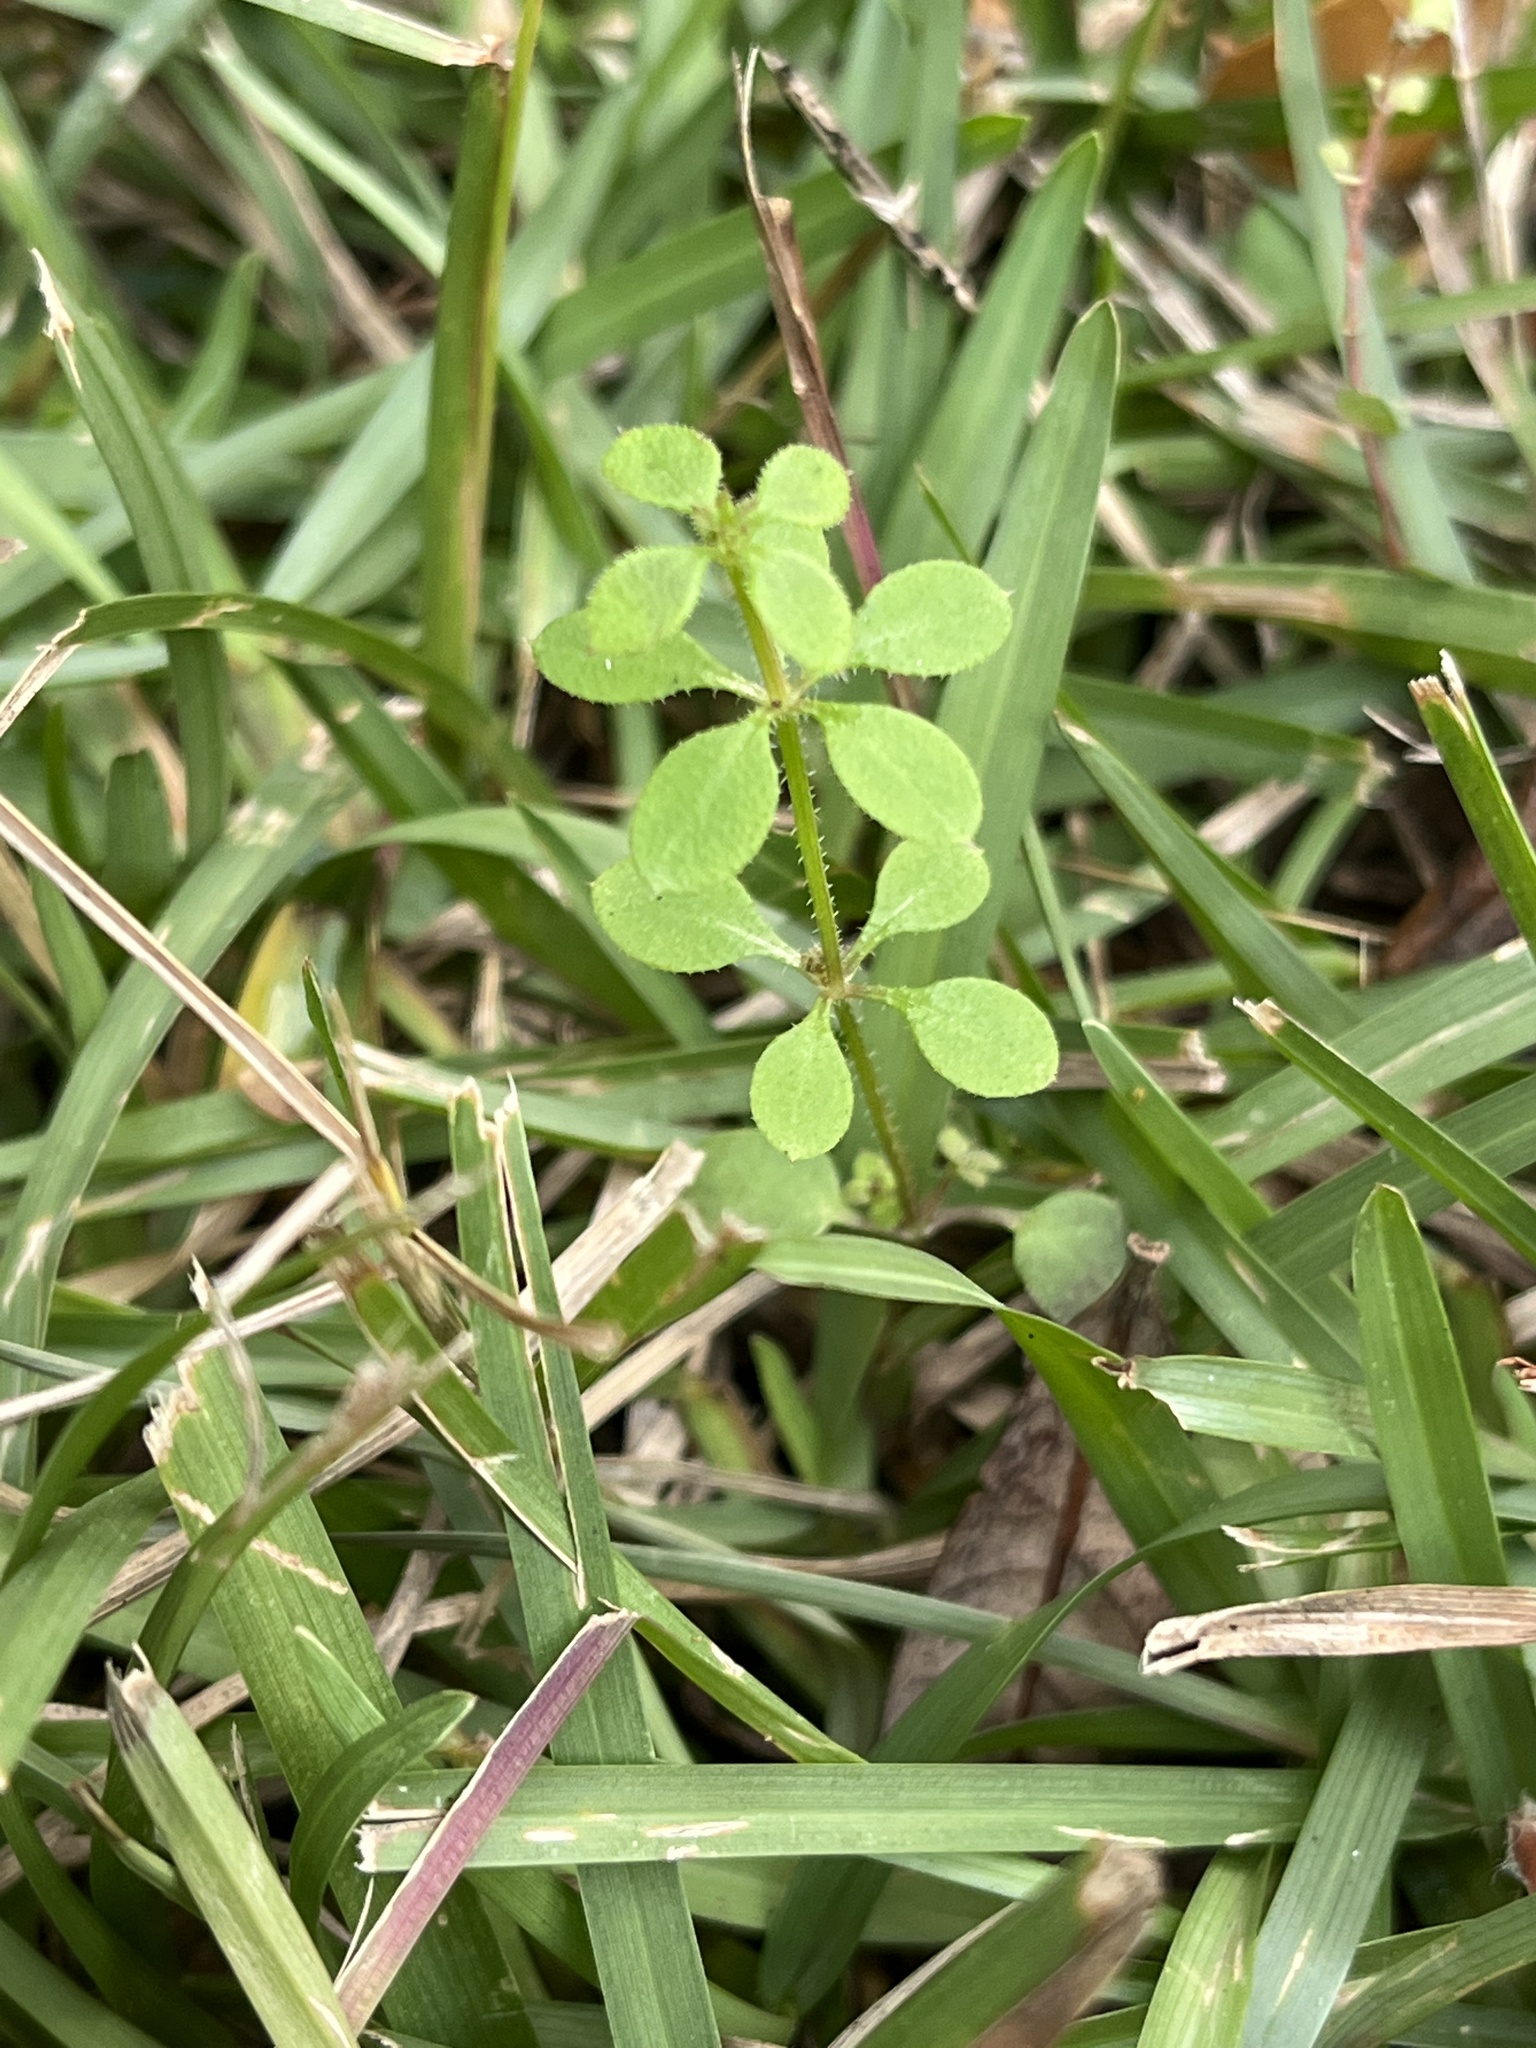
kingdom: Plantae
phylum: Tracheophyta
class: Magnoliopsida
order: Gentianales
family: Rubiaceae
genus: Galium
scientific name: Galium aparine
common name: Cleavers
